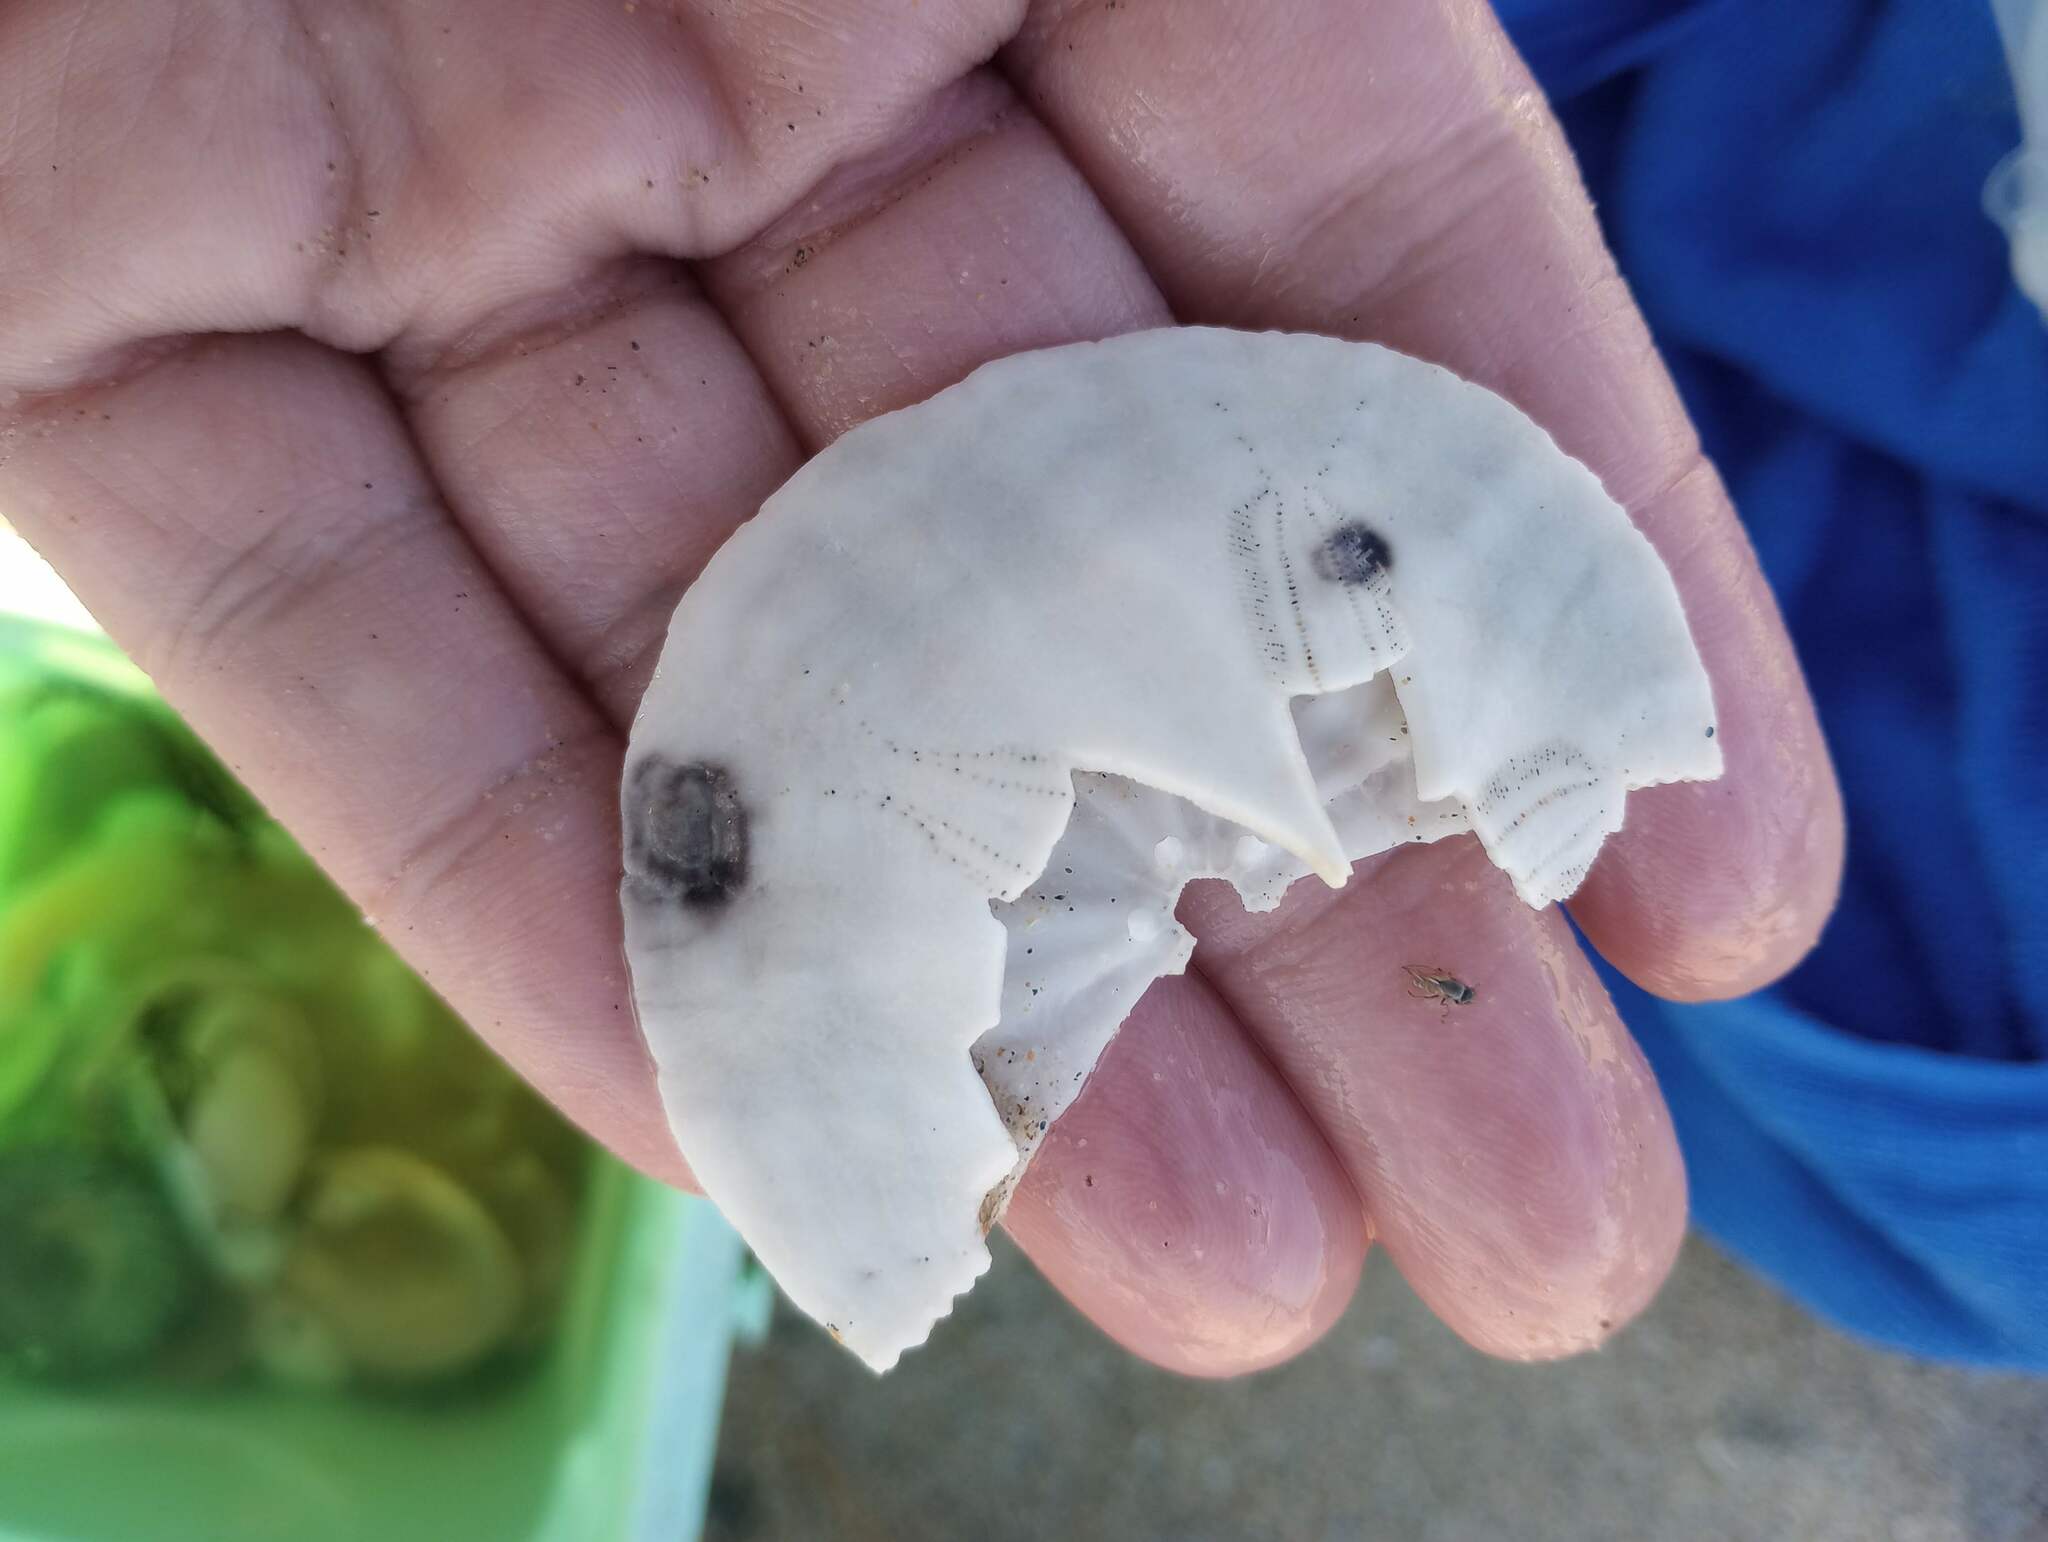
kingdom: Animalia
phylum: Echinodermata
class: Echinoidea
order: Echinolampadacea
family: Dendrasteridae
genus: Dendraster
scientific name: Dendraster excentricus
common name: Eccentric sand dollar sea urchin
